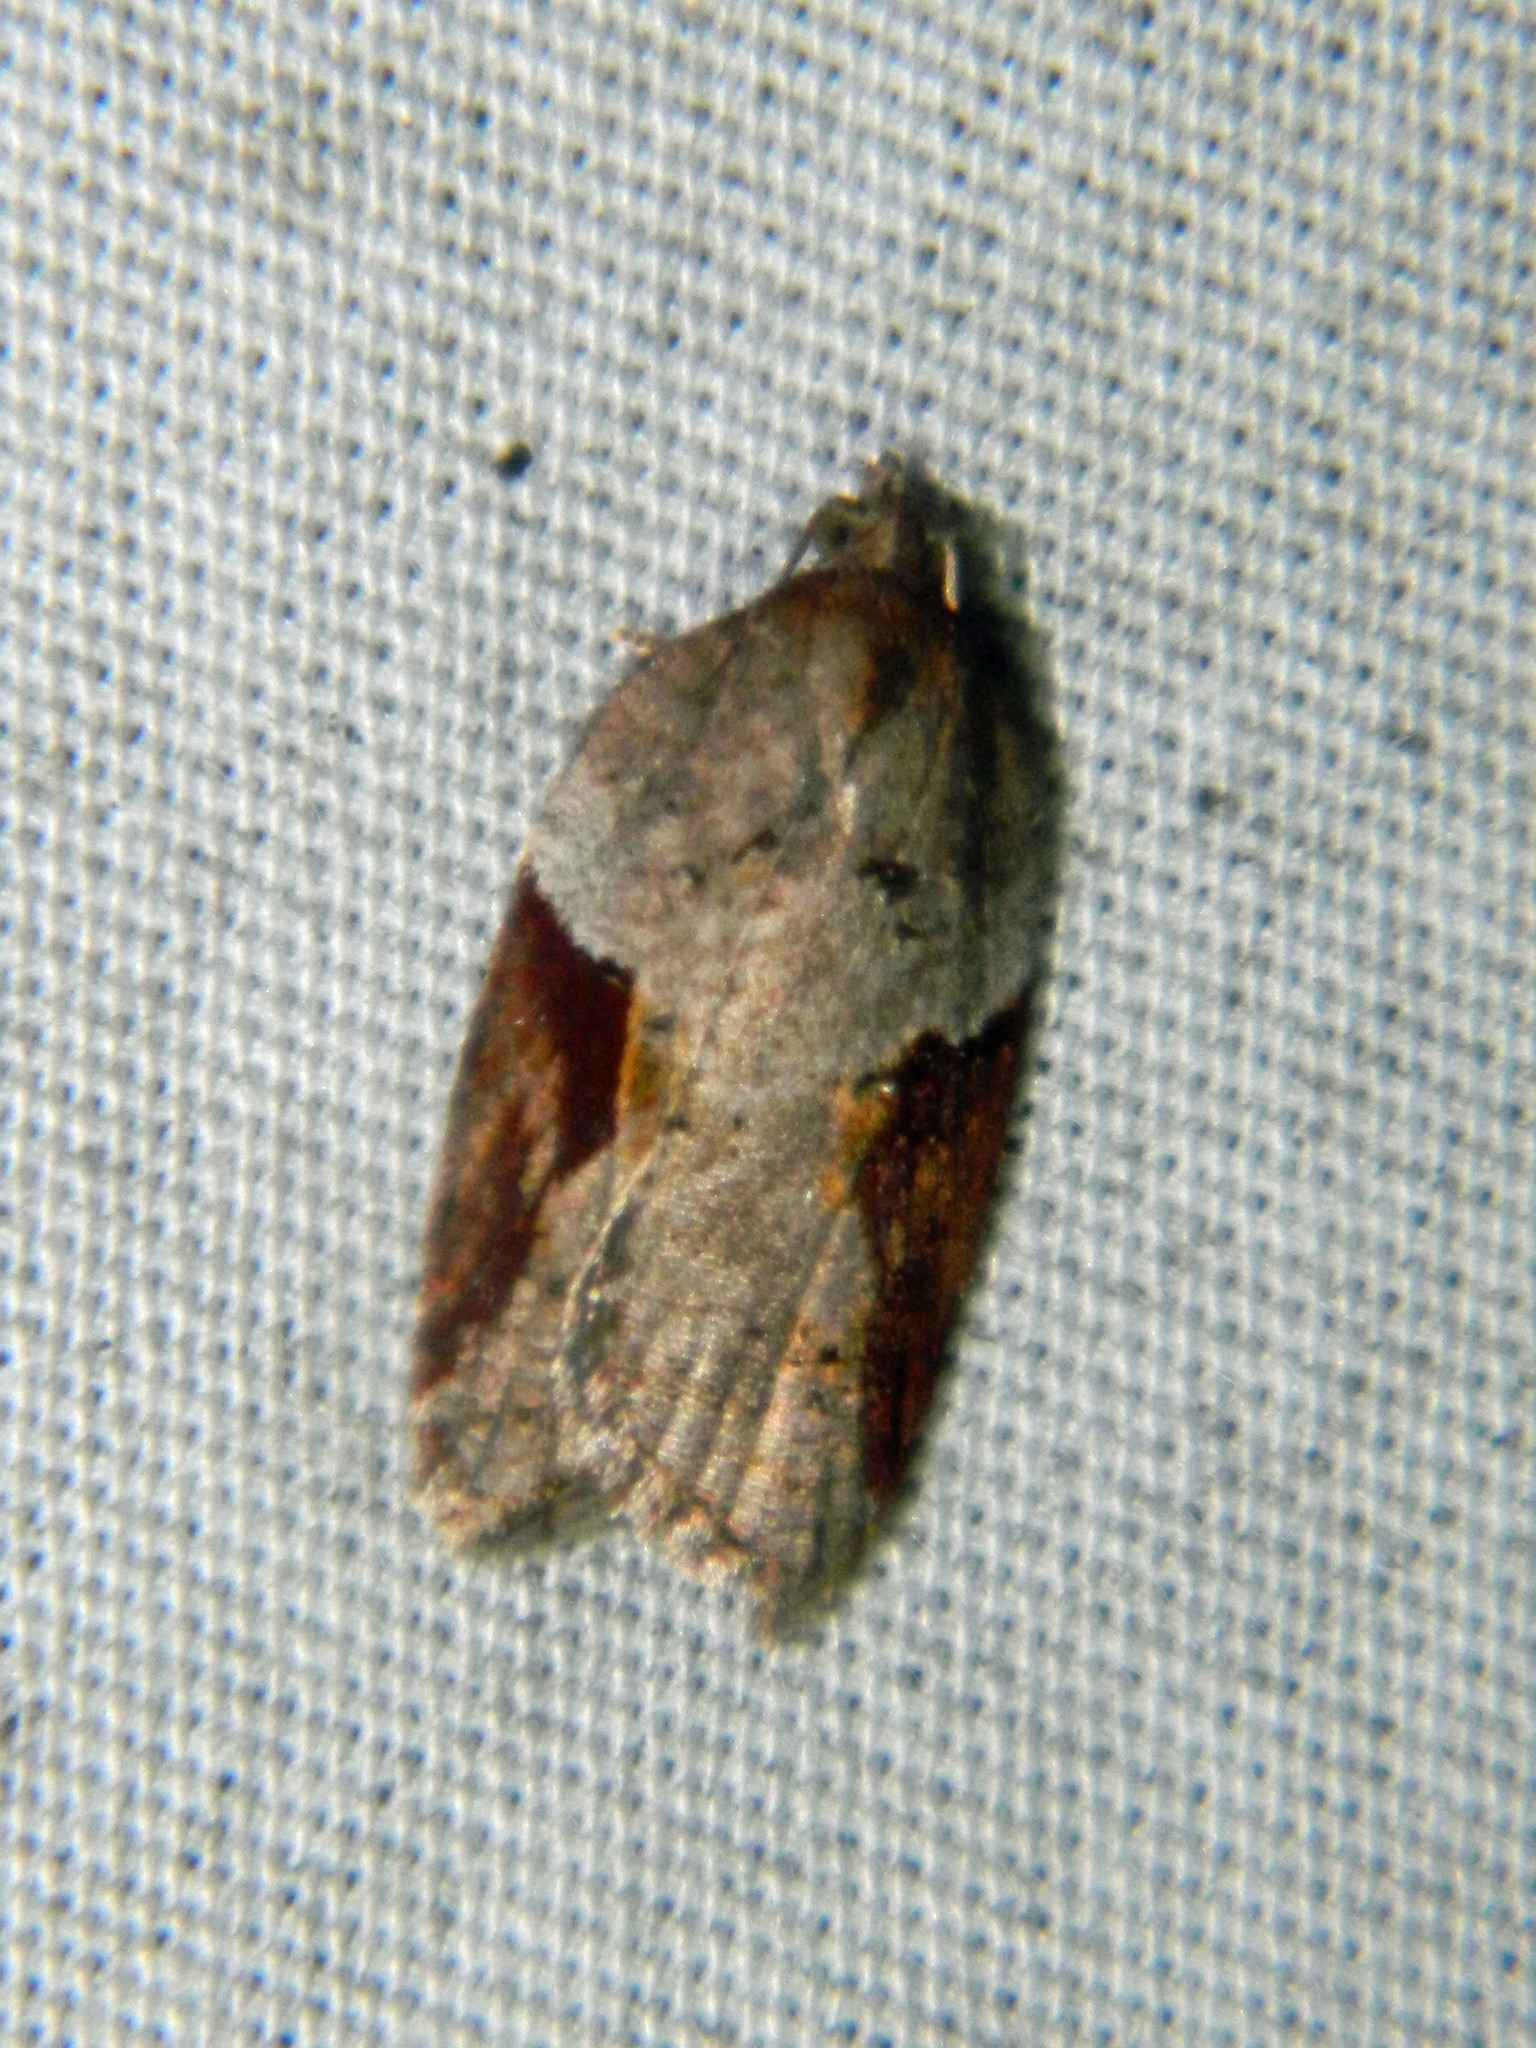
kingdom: Animalia
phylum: Arthropoda
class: Insecta
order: Lepidoptera
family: Tortricidae
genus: Acleris
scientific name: Acleris macdunnoughi
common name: Macdunnough's acleris
